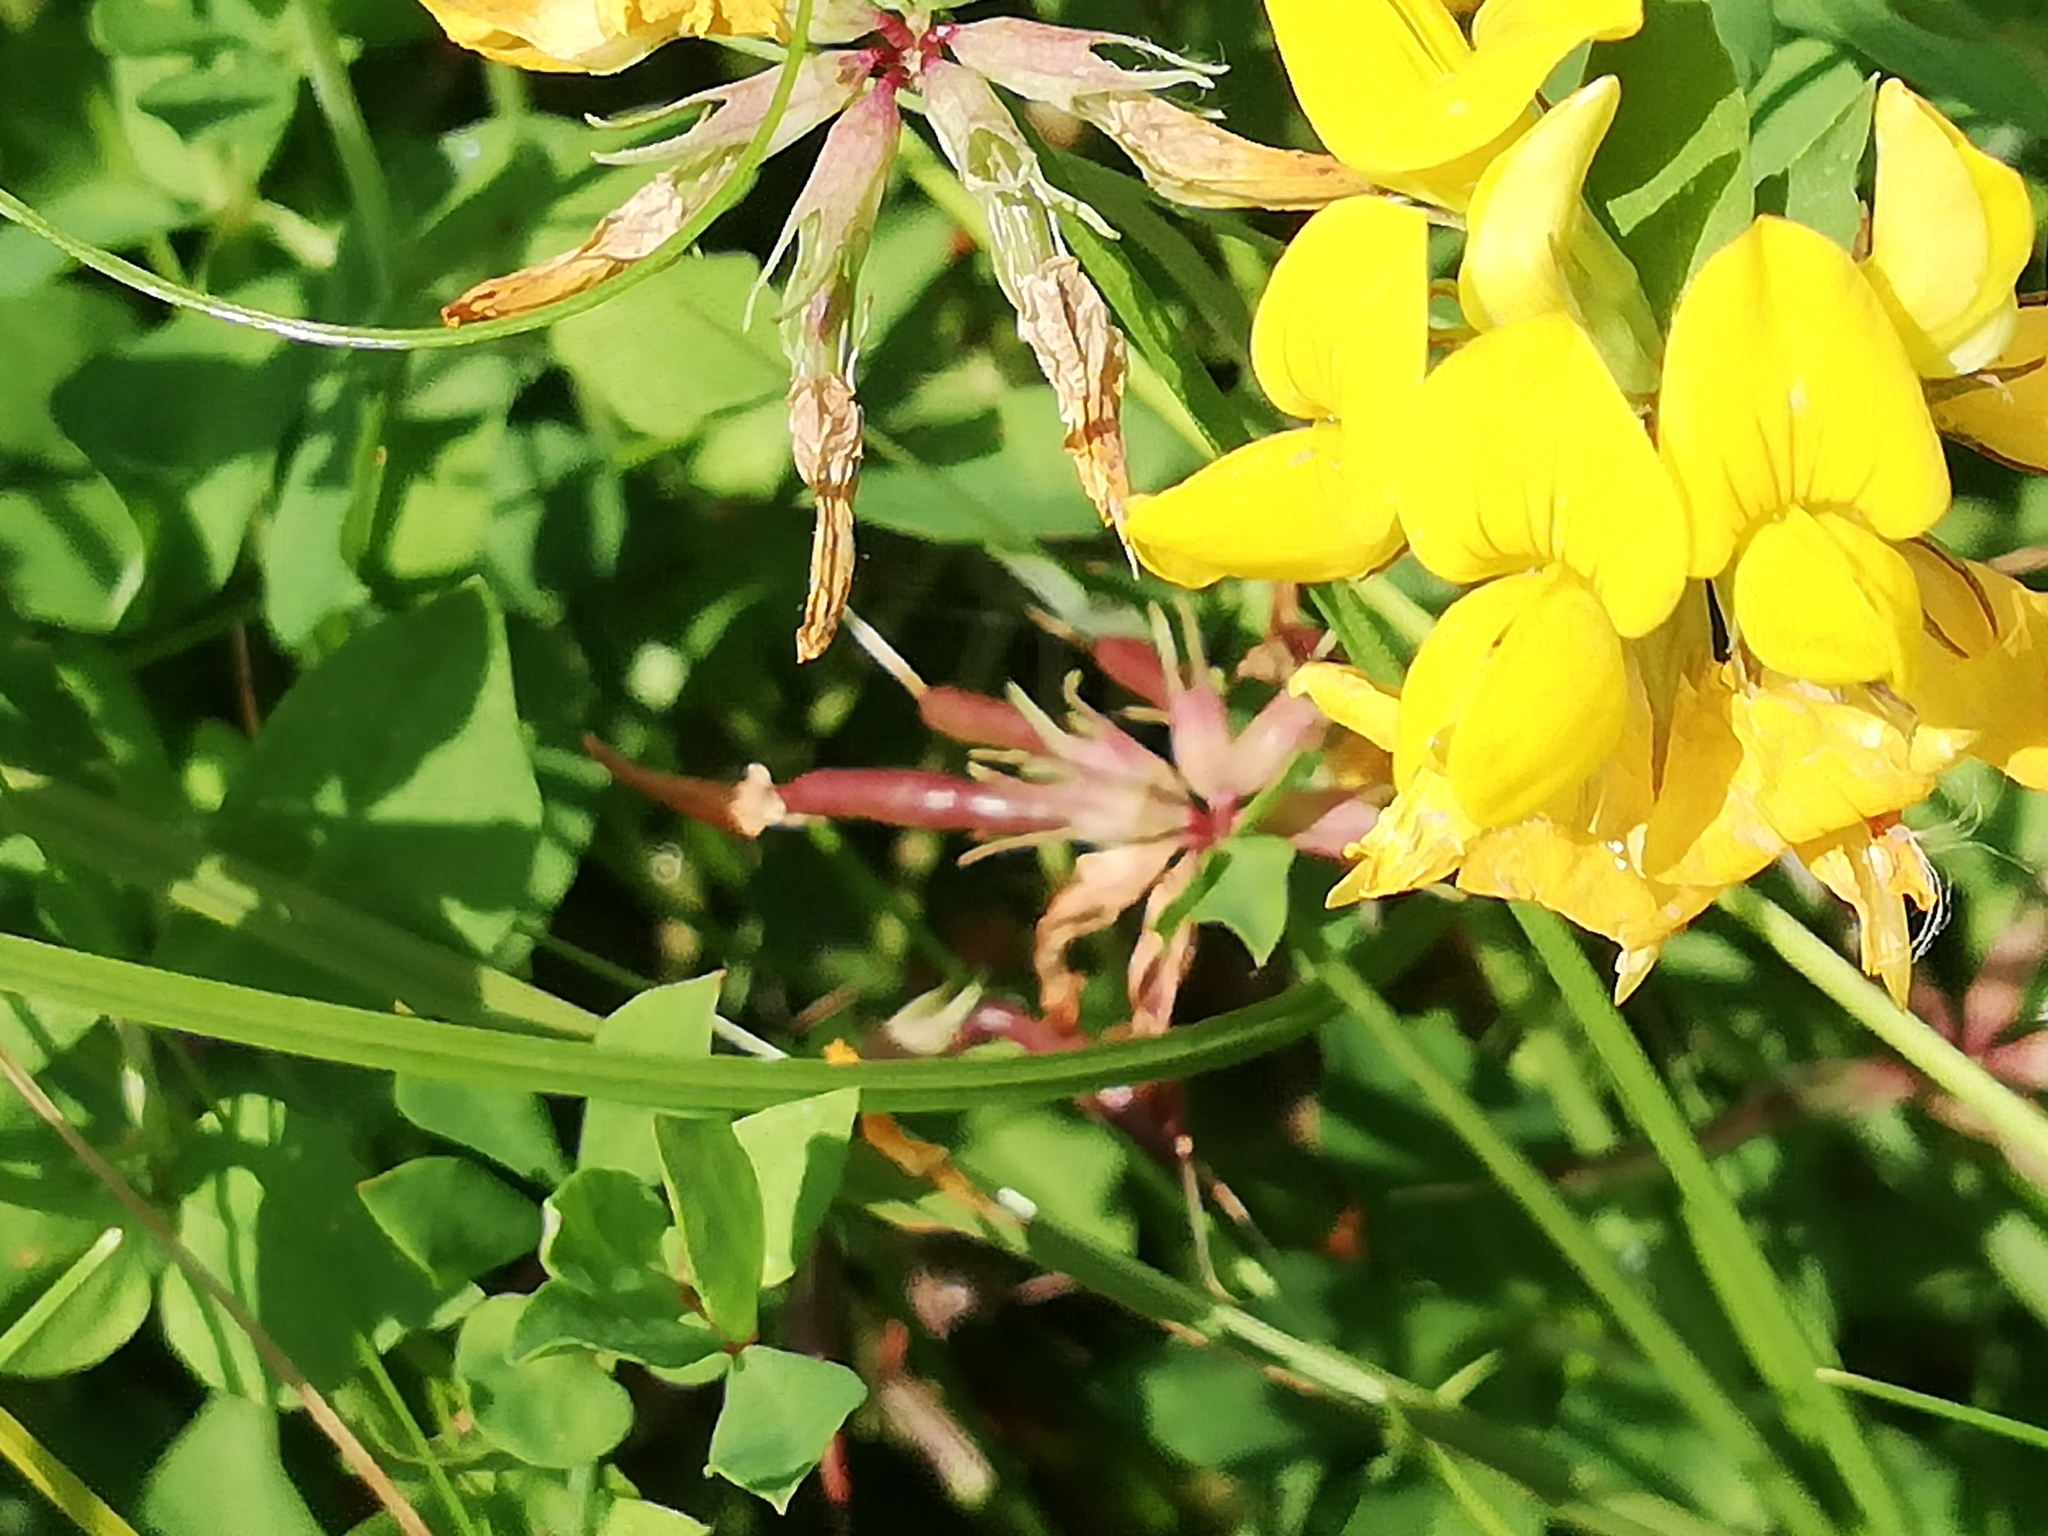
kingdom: Plantae
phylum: Tracheophyta
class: Magnoliopsida
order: Fabales
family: Fabaceae
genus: Lotus
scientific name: Lotus pedunculatus
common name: Greater birdsfoot-trefoil
